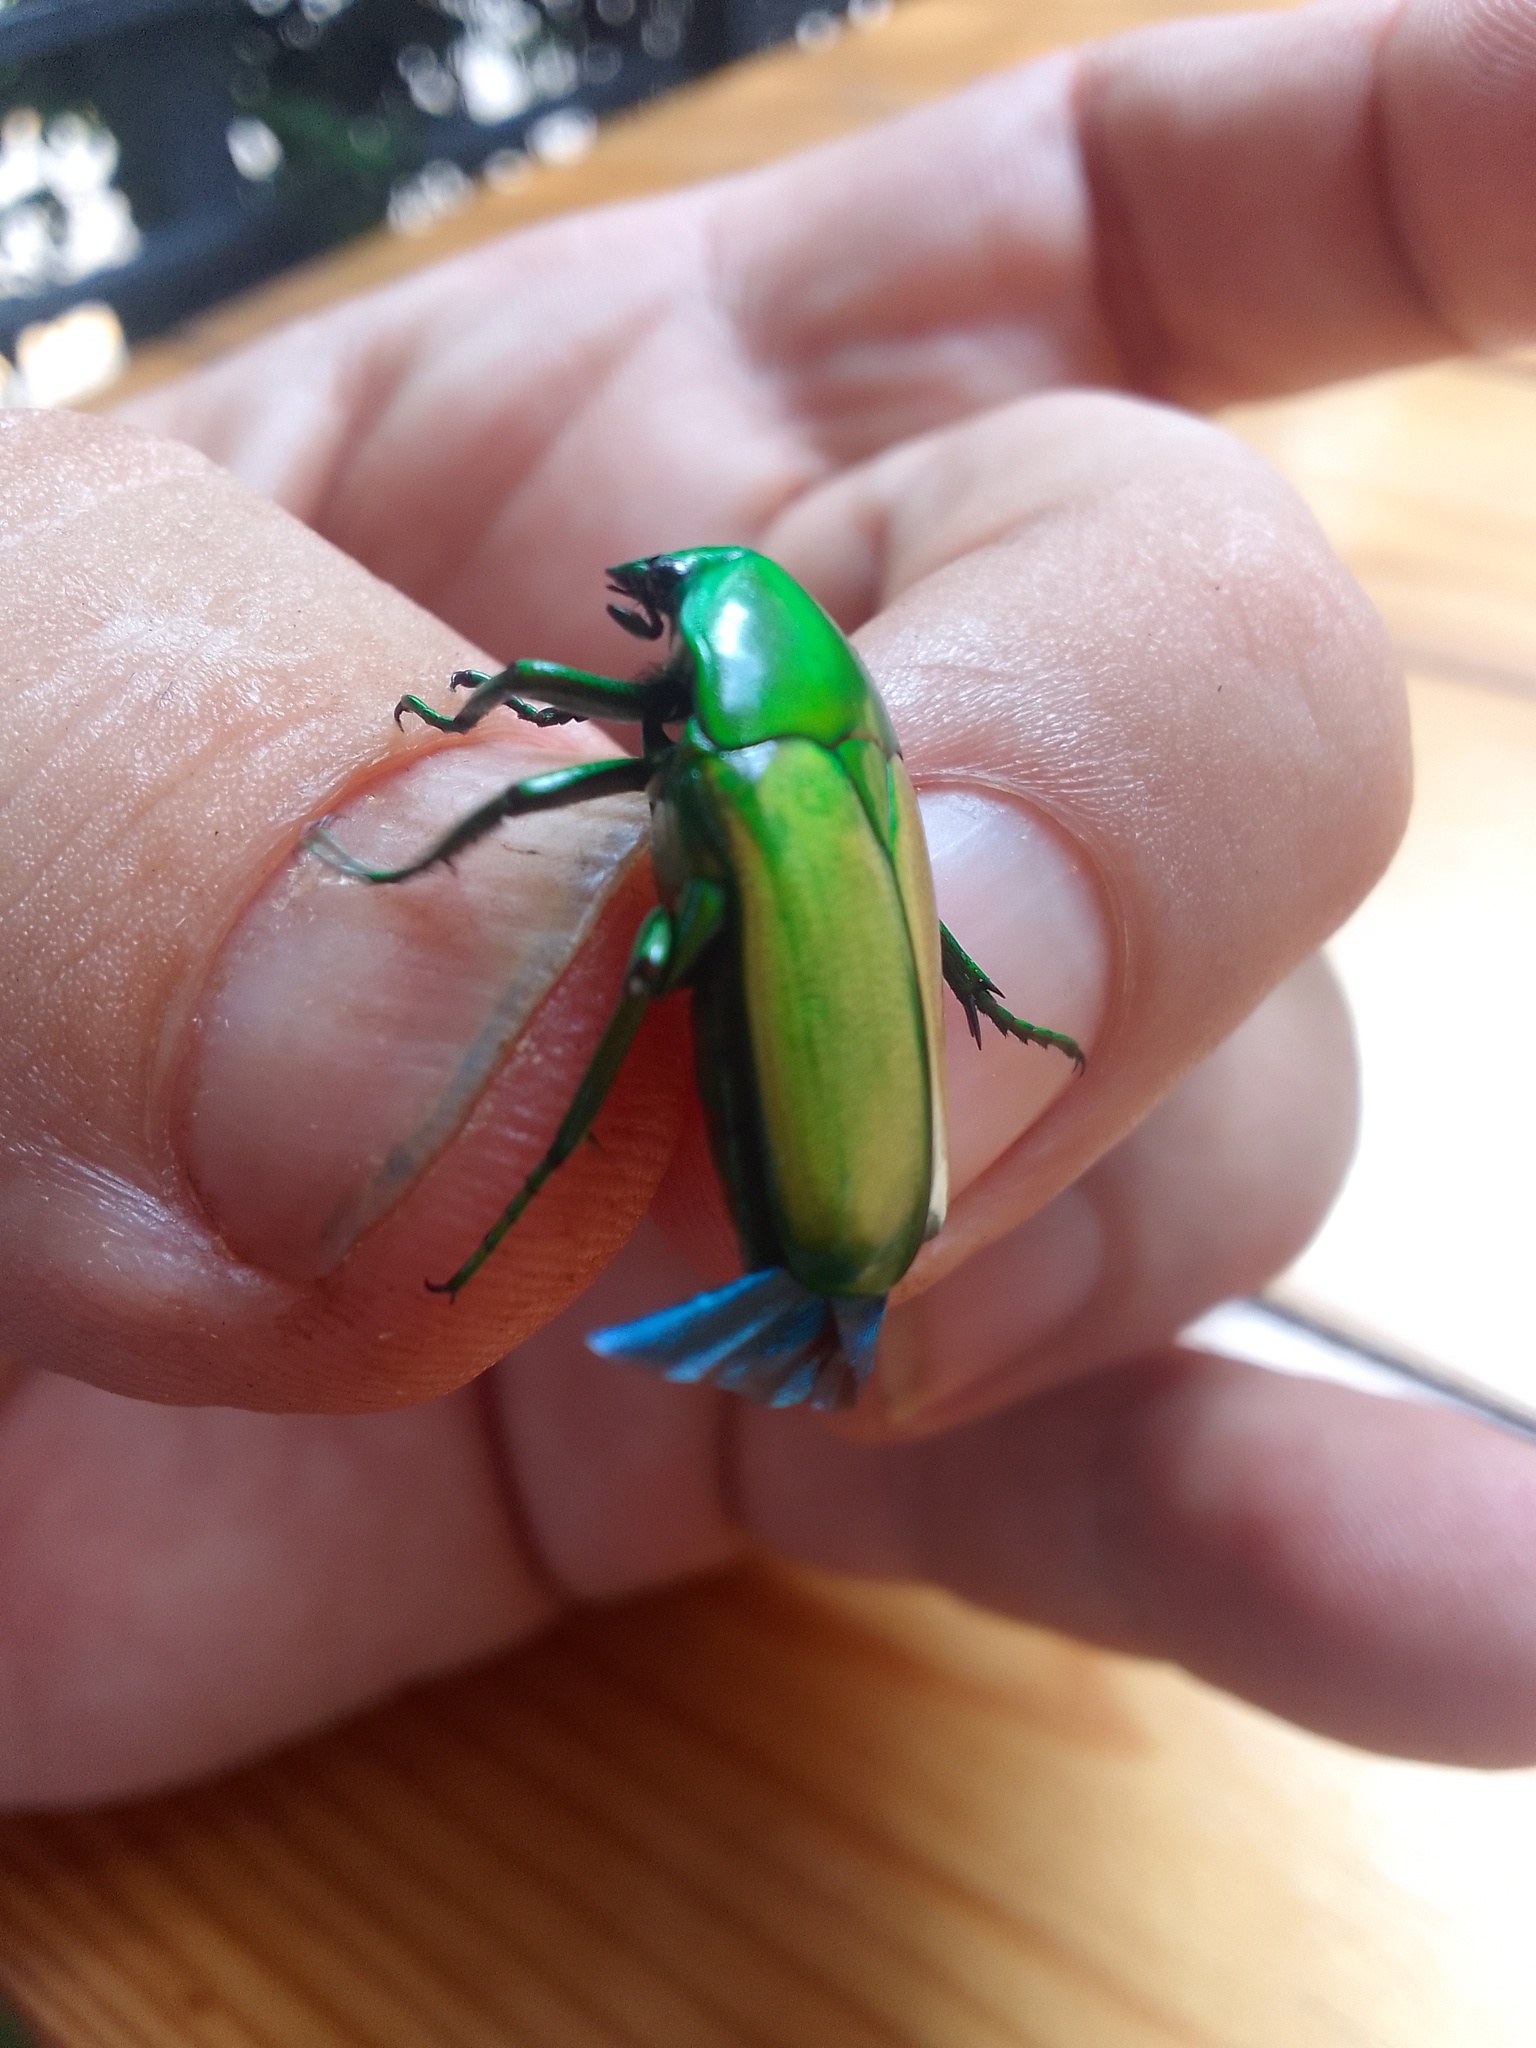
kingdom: Animalia
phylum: Arthropoda
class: Insecta
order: Coleoptera
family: Scarabaeidae
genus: Chlorocala
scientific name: Chlorocala africana
